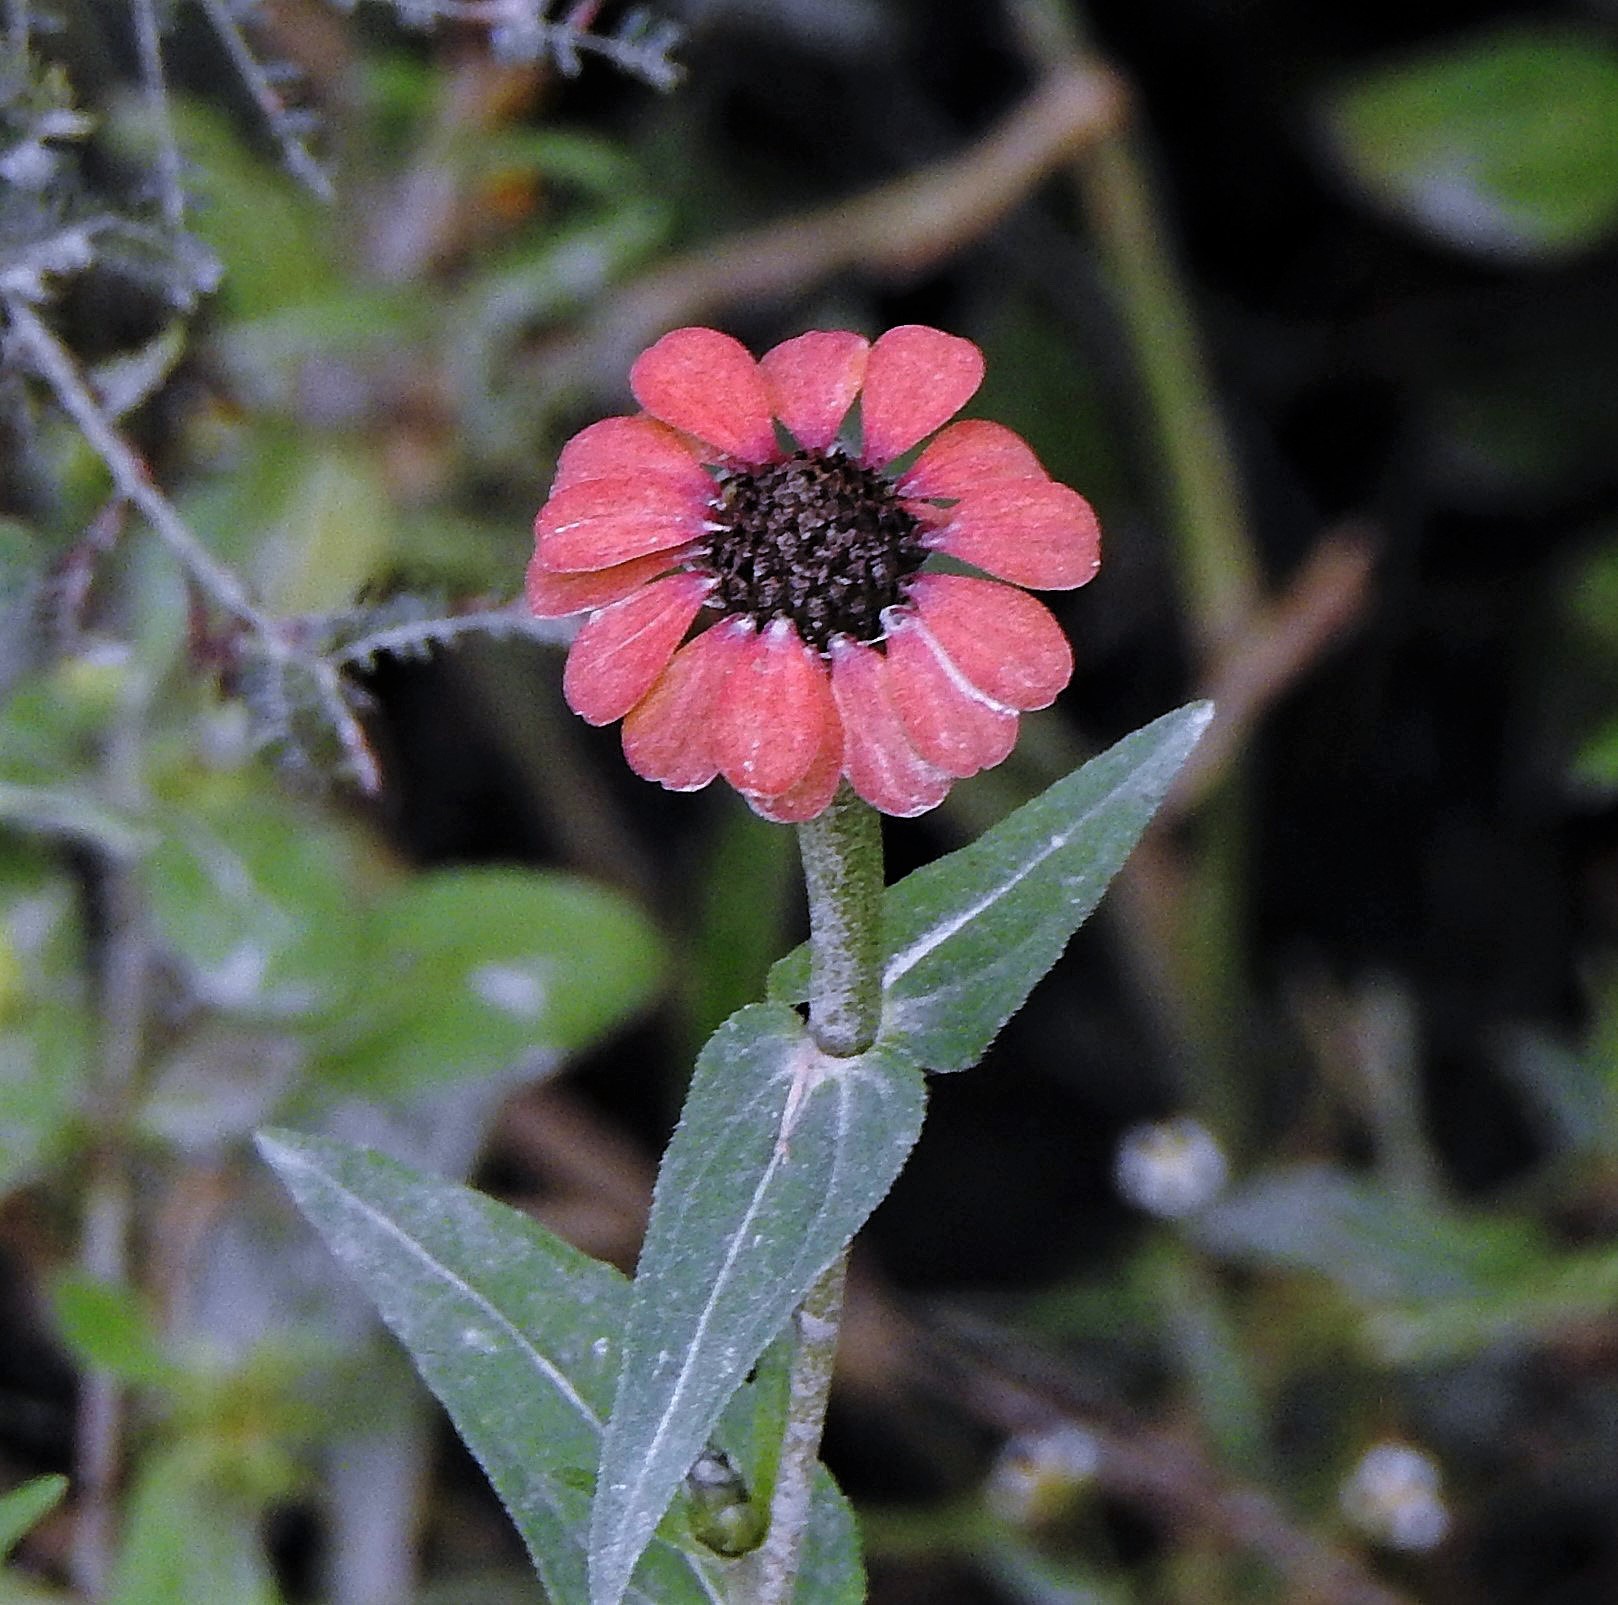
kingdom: Plantae
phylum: Tracheophyta
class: Magnoliopsida
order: Asterales
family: Asteraceae
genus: Zinnia
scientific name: Zinnia peruviana
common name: Peruvian zinnia
